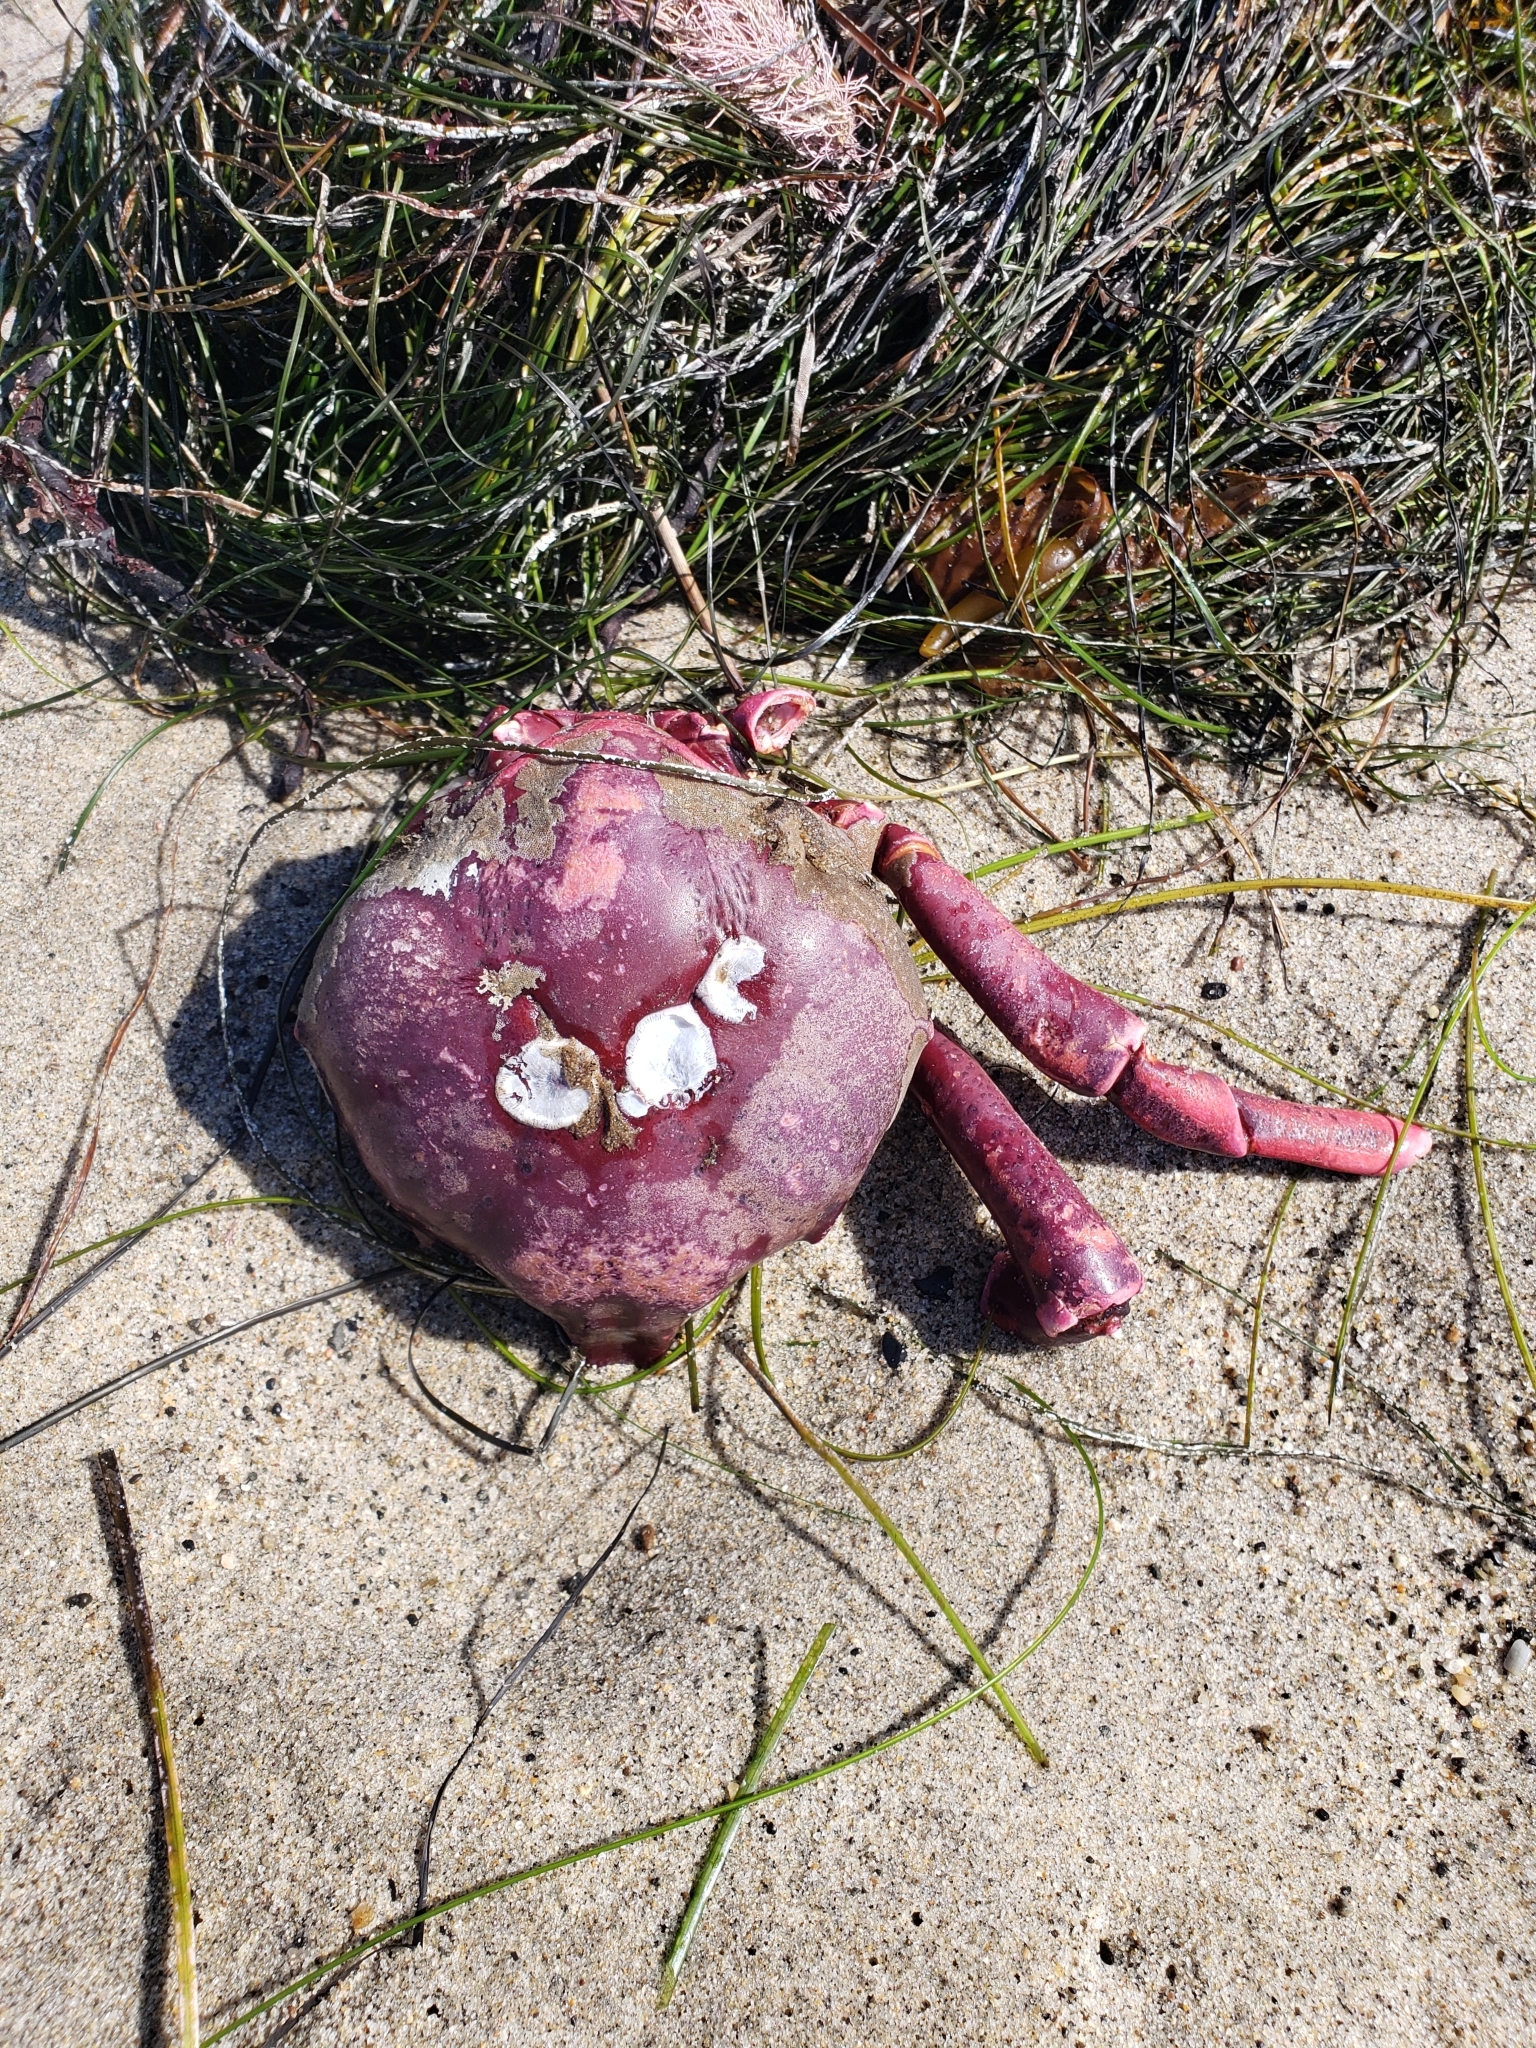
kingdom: Animalia
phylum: Arthropoda
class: Malacostraca
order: Decapoda
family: Epialtidae
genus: Taliepus
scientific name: Taliepus nuttallii
